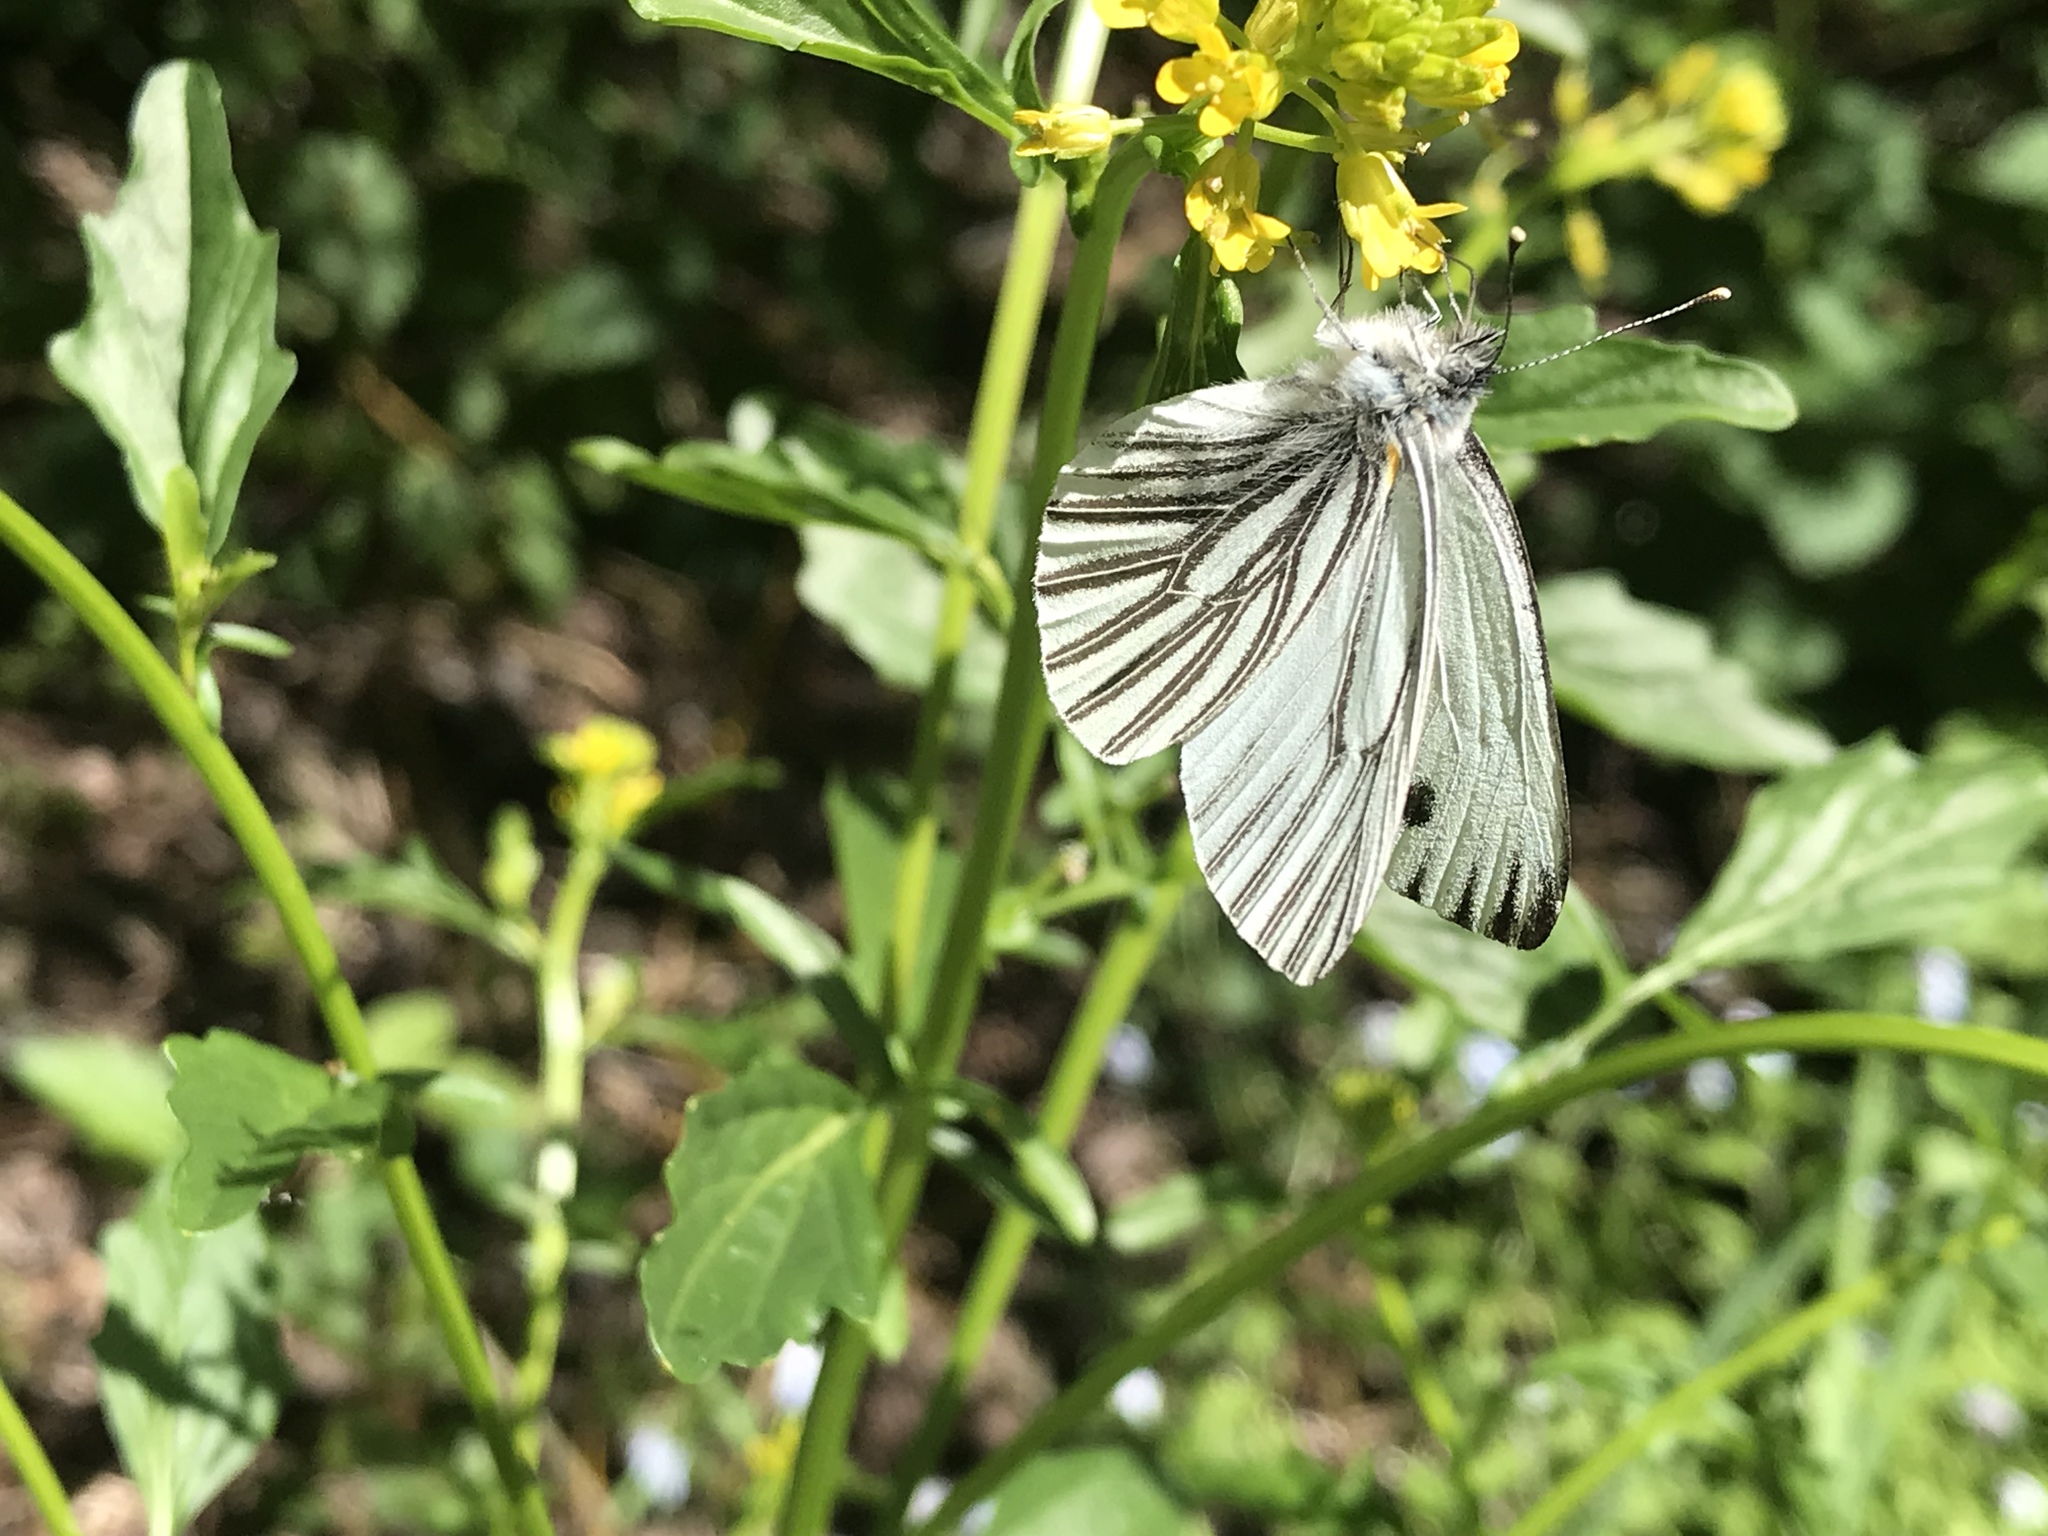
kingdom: Animalia
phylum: Arthropoda
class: Insecta
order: Lepidoptera
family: Pieridae
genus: Pieris
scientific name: Pieris marginalis
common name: Margined white
